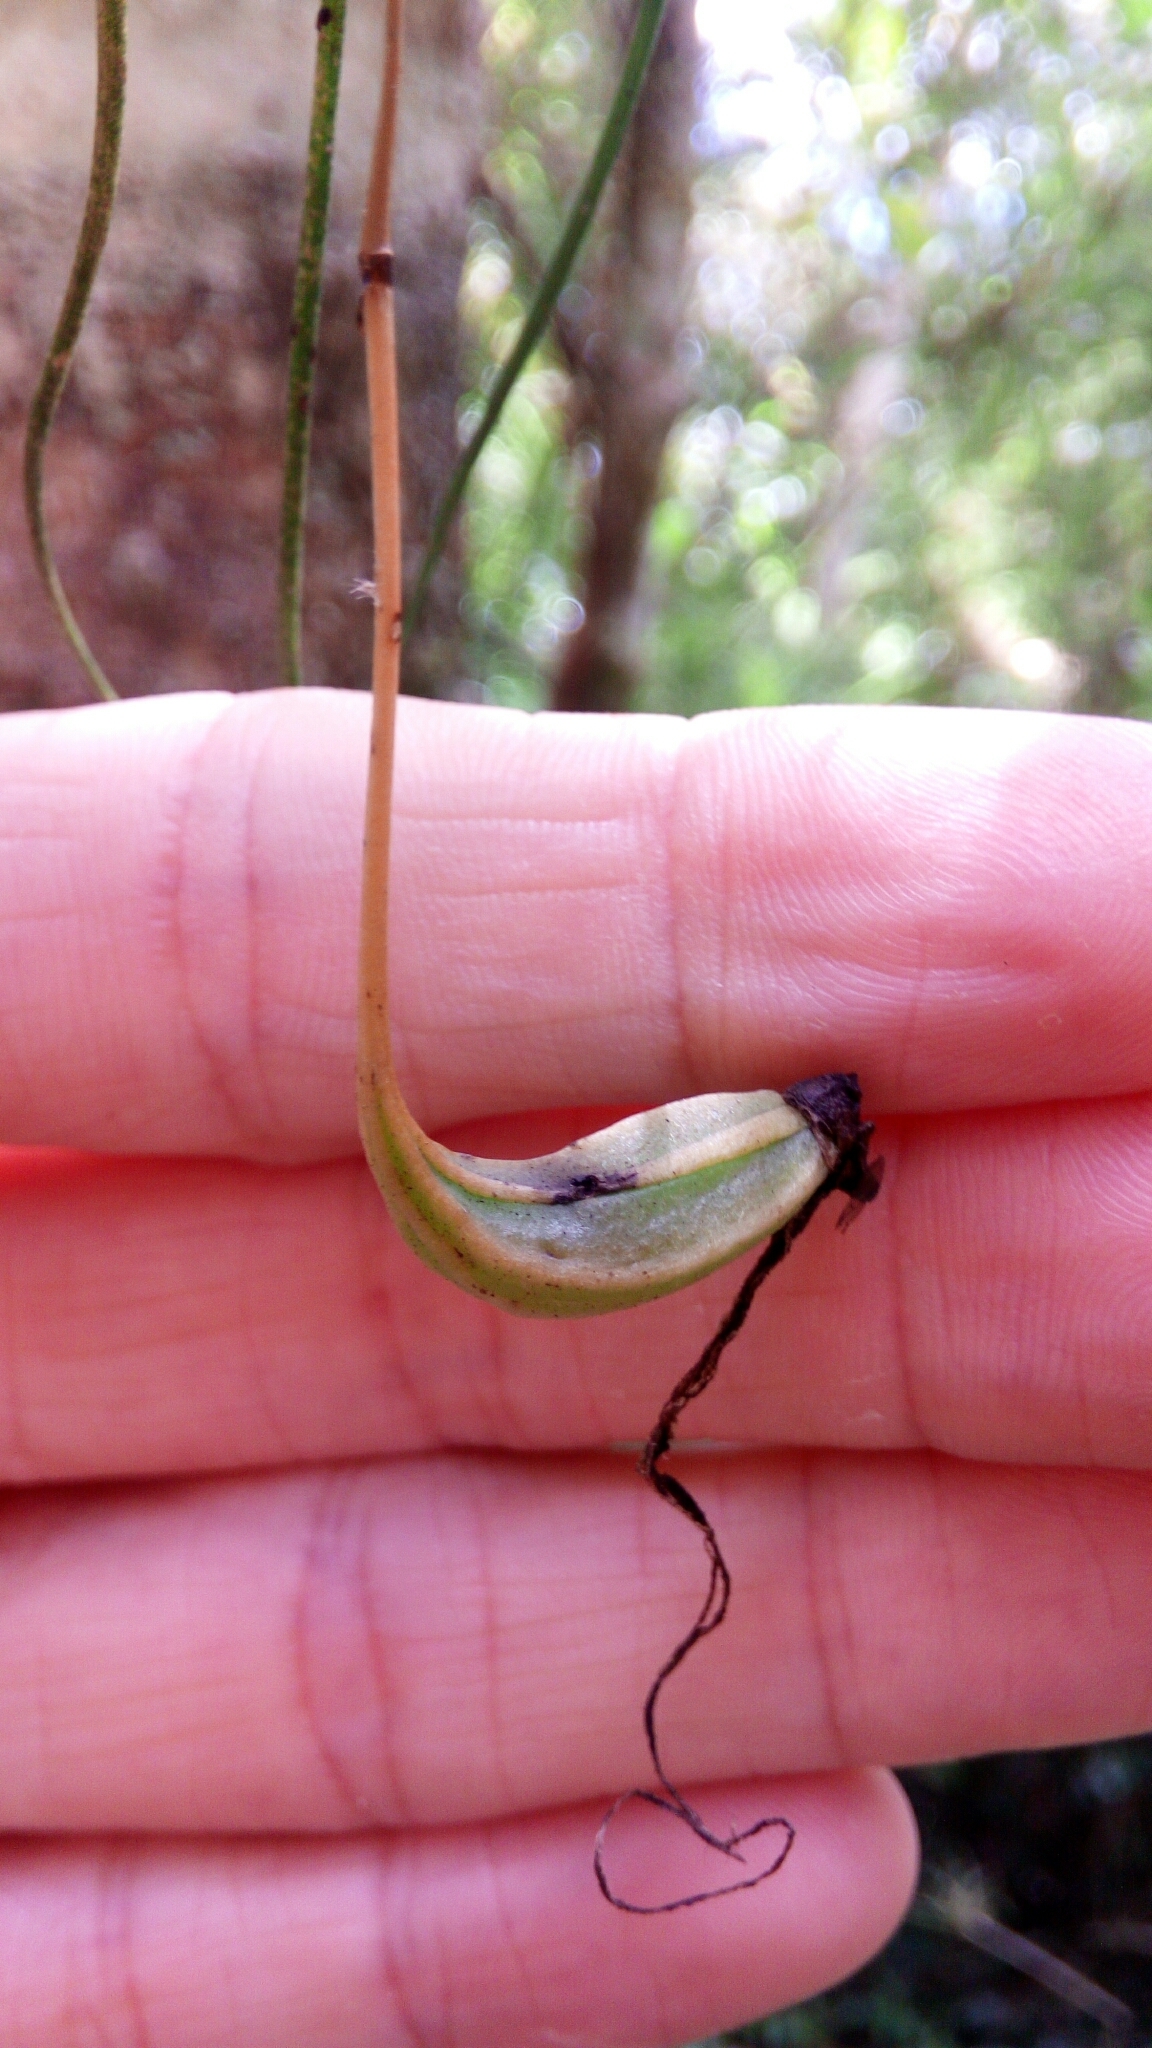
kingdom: Plantae
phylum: Tracheophyta
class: Liliopsida
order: Asparagales
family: Orchidaceae
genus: Angraecum
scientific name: Angraecum linearifolium
